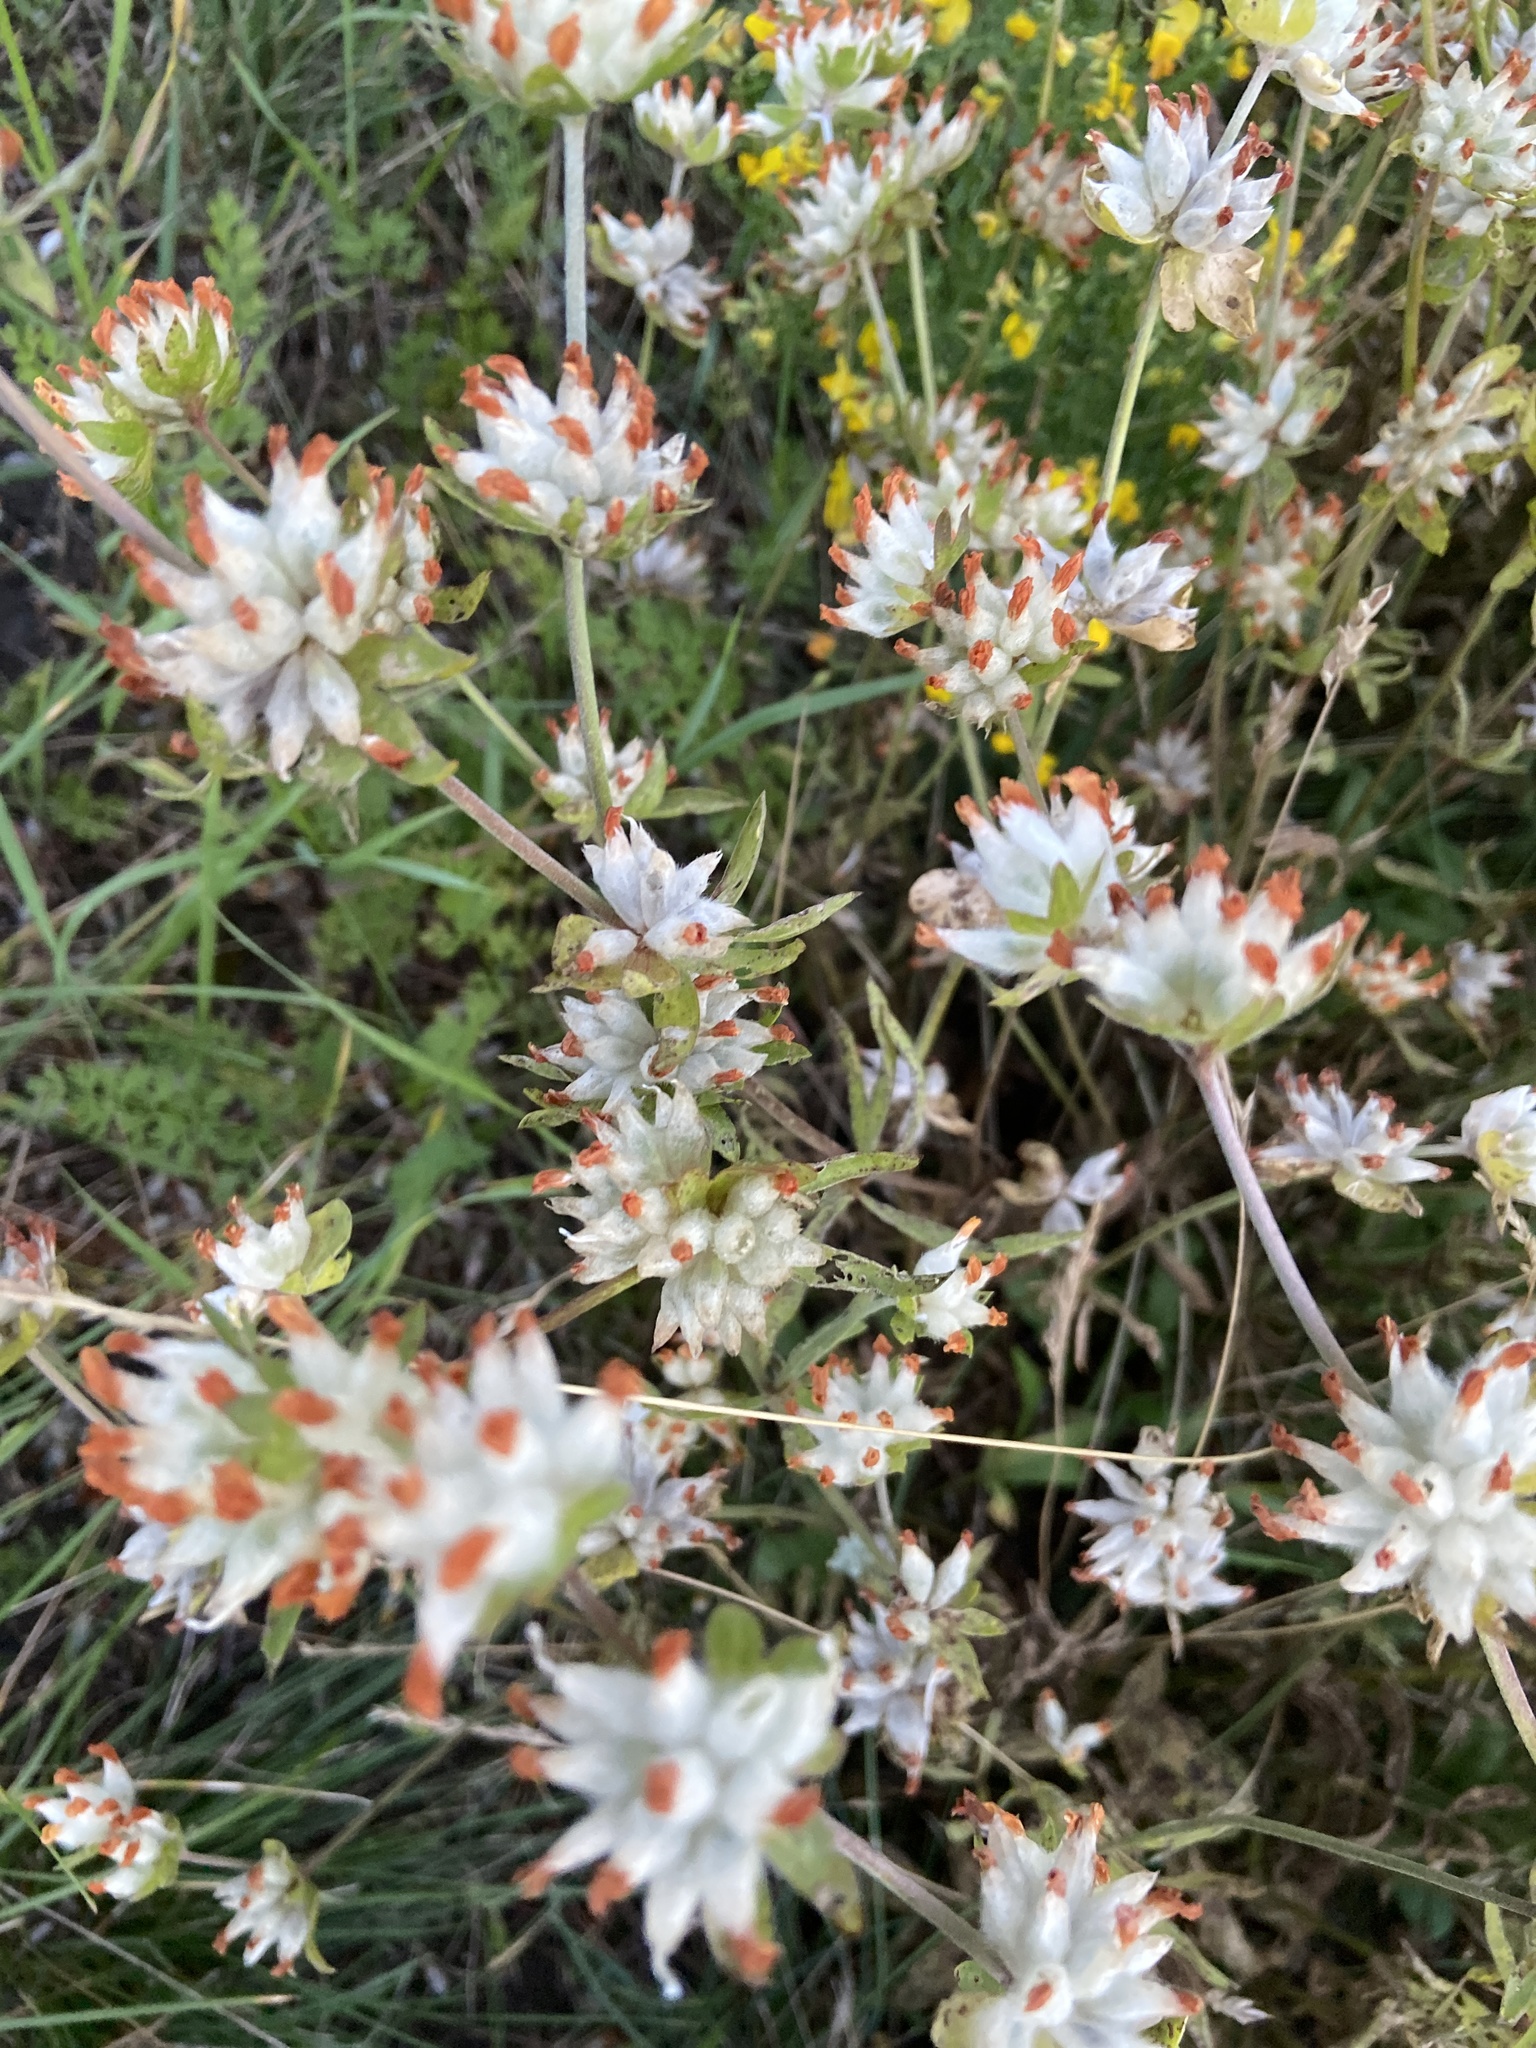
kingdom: Plantae
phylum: Tracheophyta
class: Magnoliopsida
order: Fabales
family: Fabaceae
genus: Anthyllis
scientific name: Anthyllis vulneraria
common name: Kidney vetch
